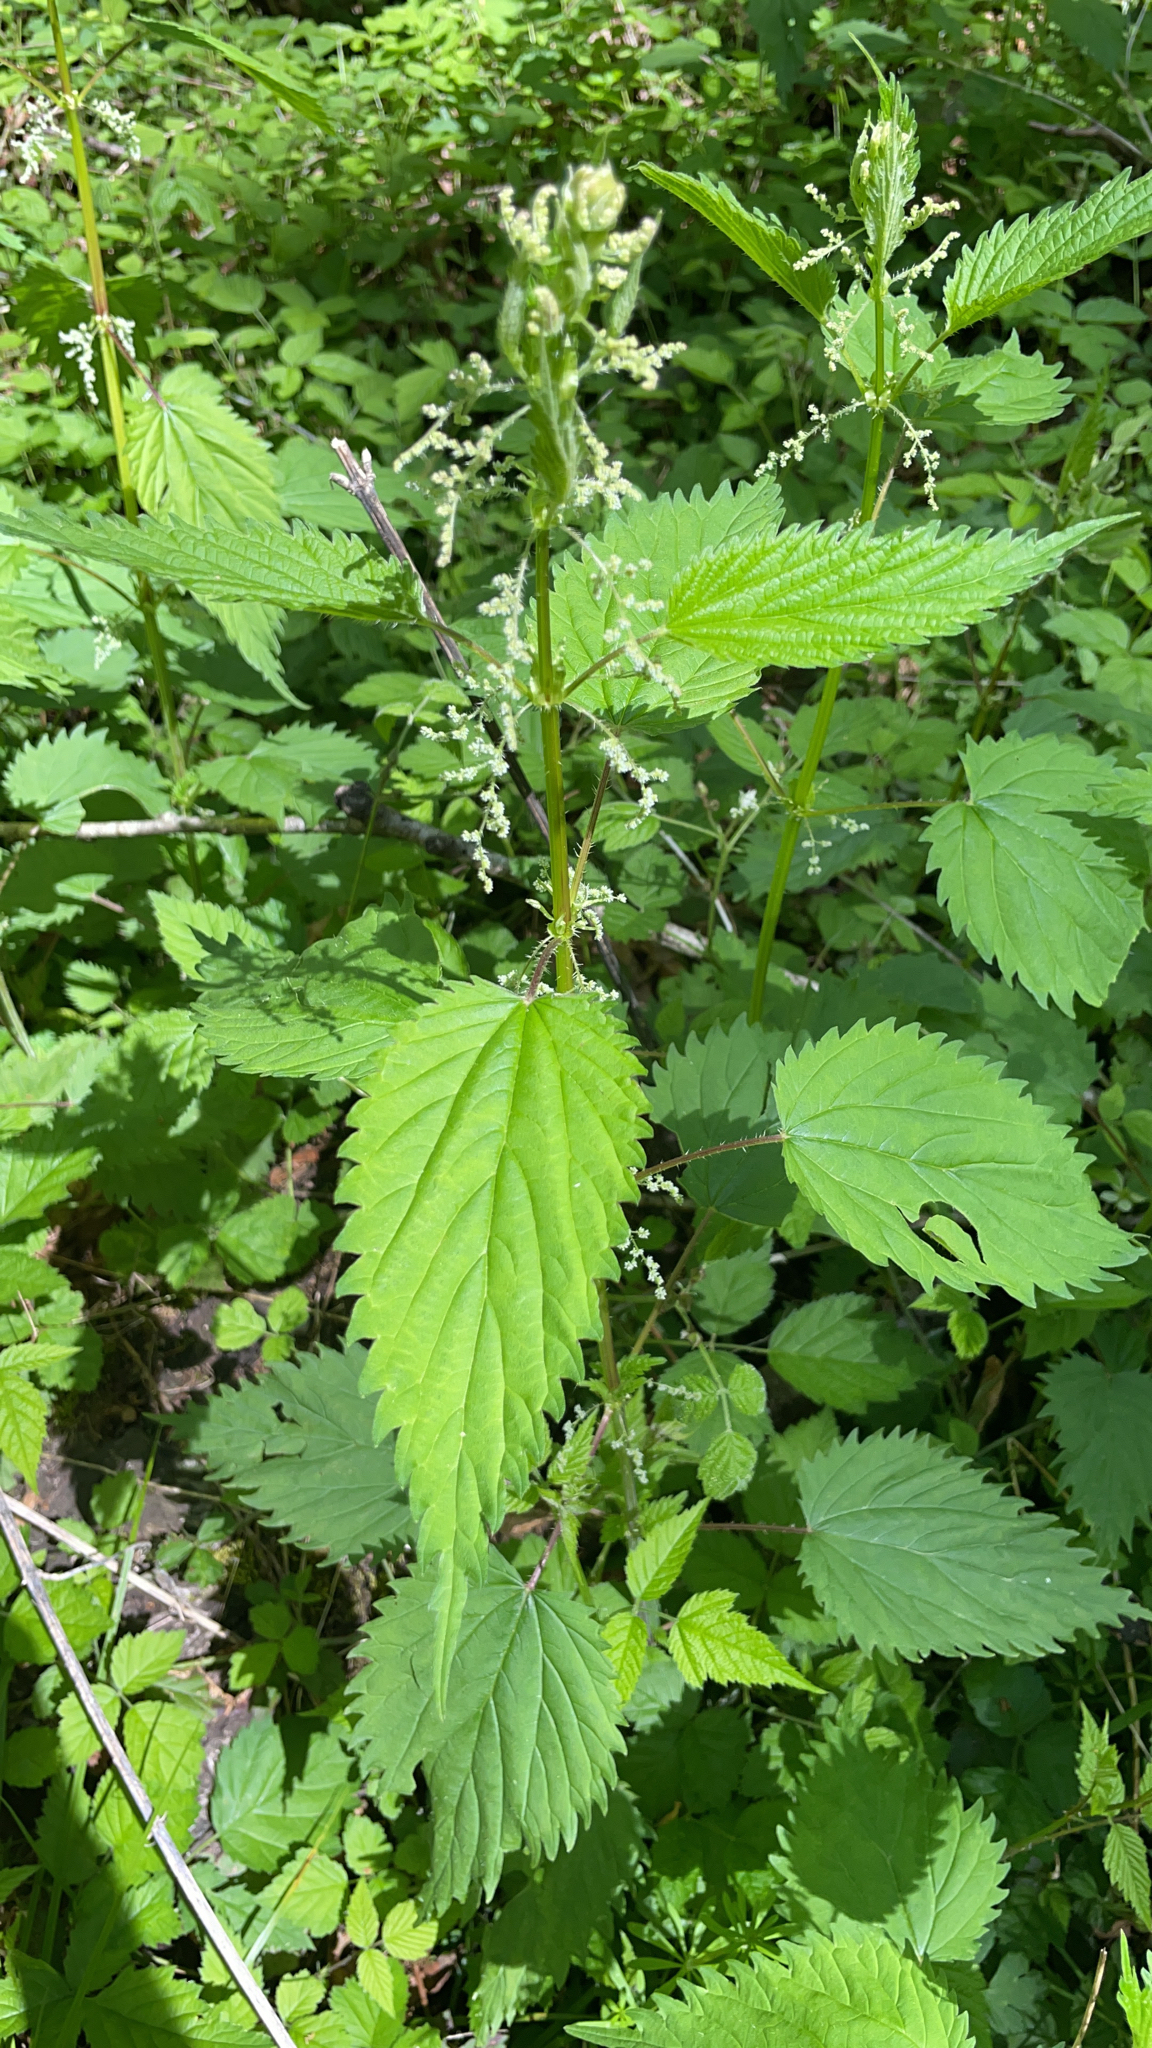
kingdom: Plantae
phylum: Tracheophyta
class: Magnoliopsida
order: Rosales
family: Urticaceae
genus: Urtica
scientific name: Urtica dioica
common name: Common nettle
